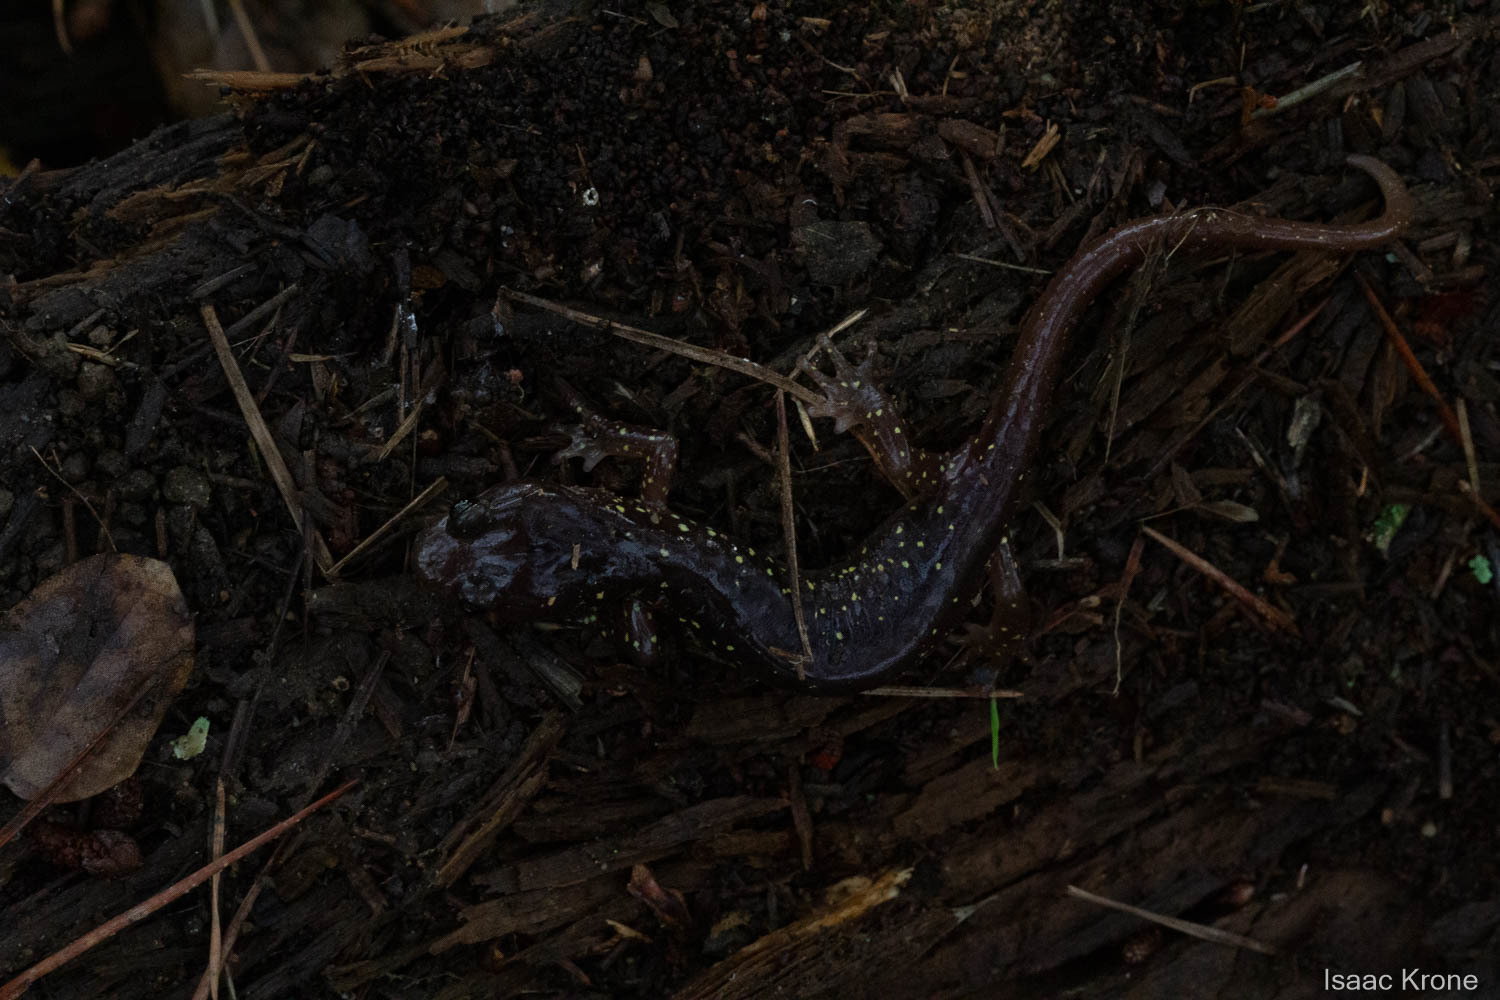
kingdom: Animalia
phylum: Chordata
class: Amphibia
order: Caudata
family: Plethodontidae
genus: Aneides
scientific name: Aneides lugubris
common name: Arboreal salamander
